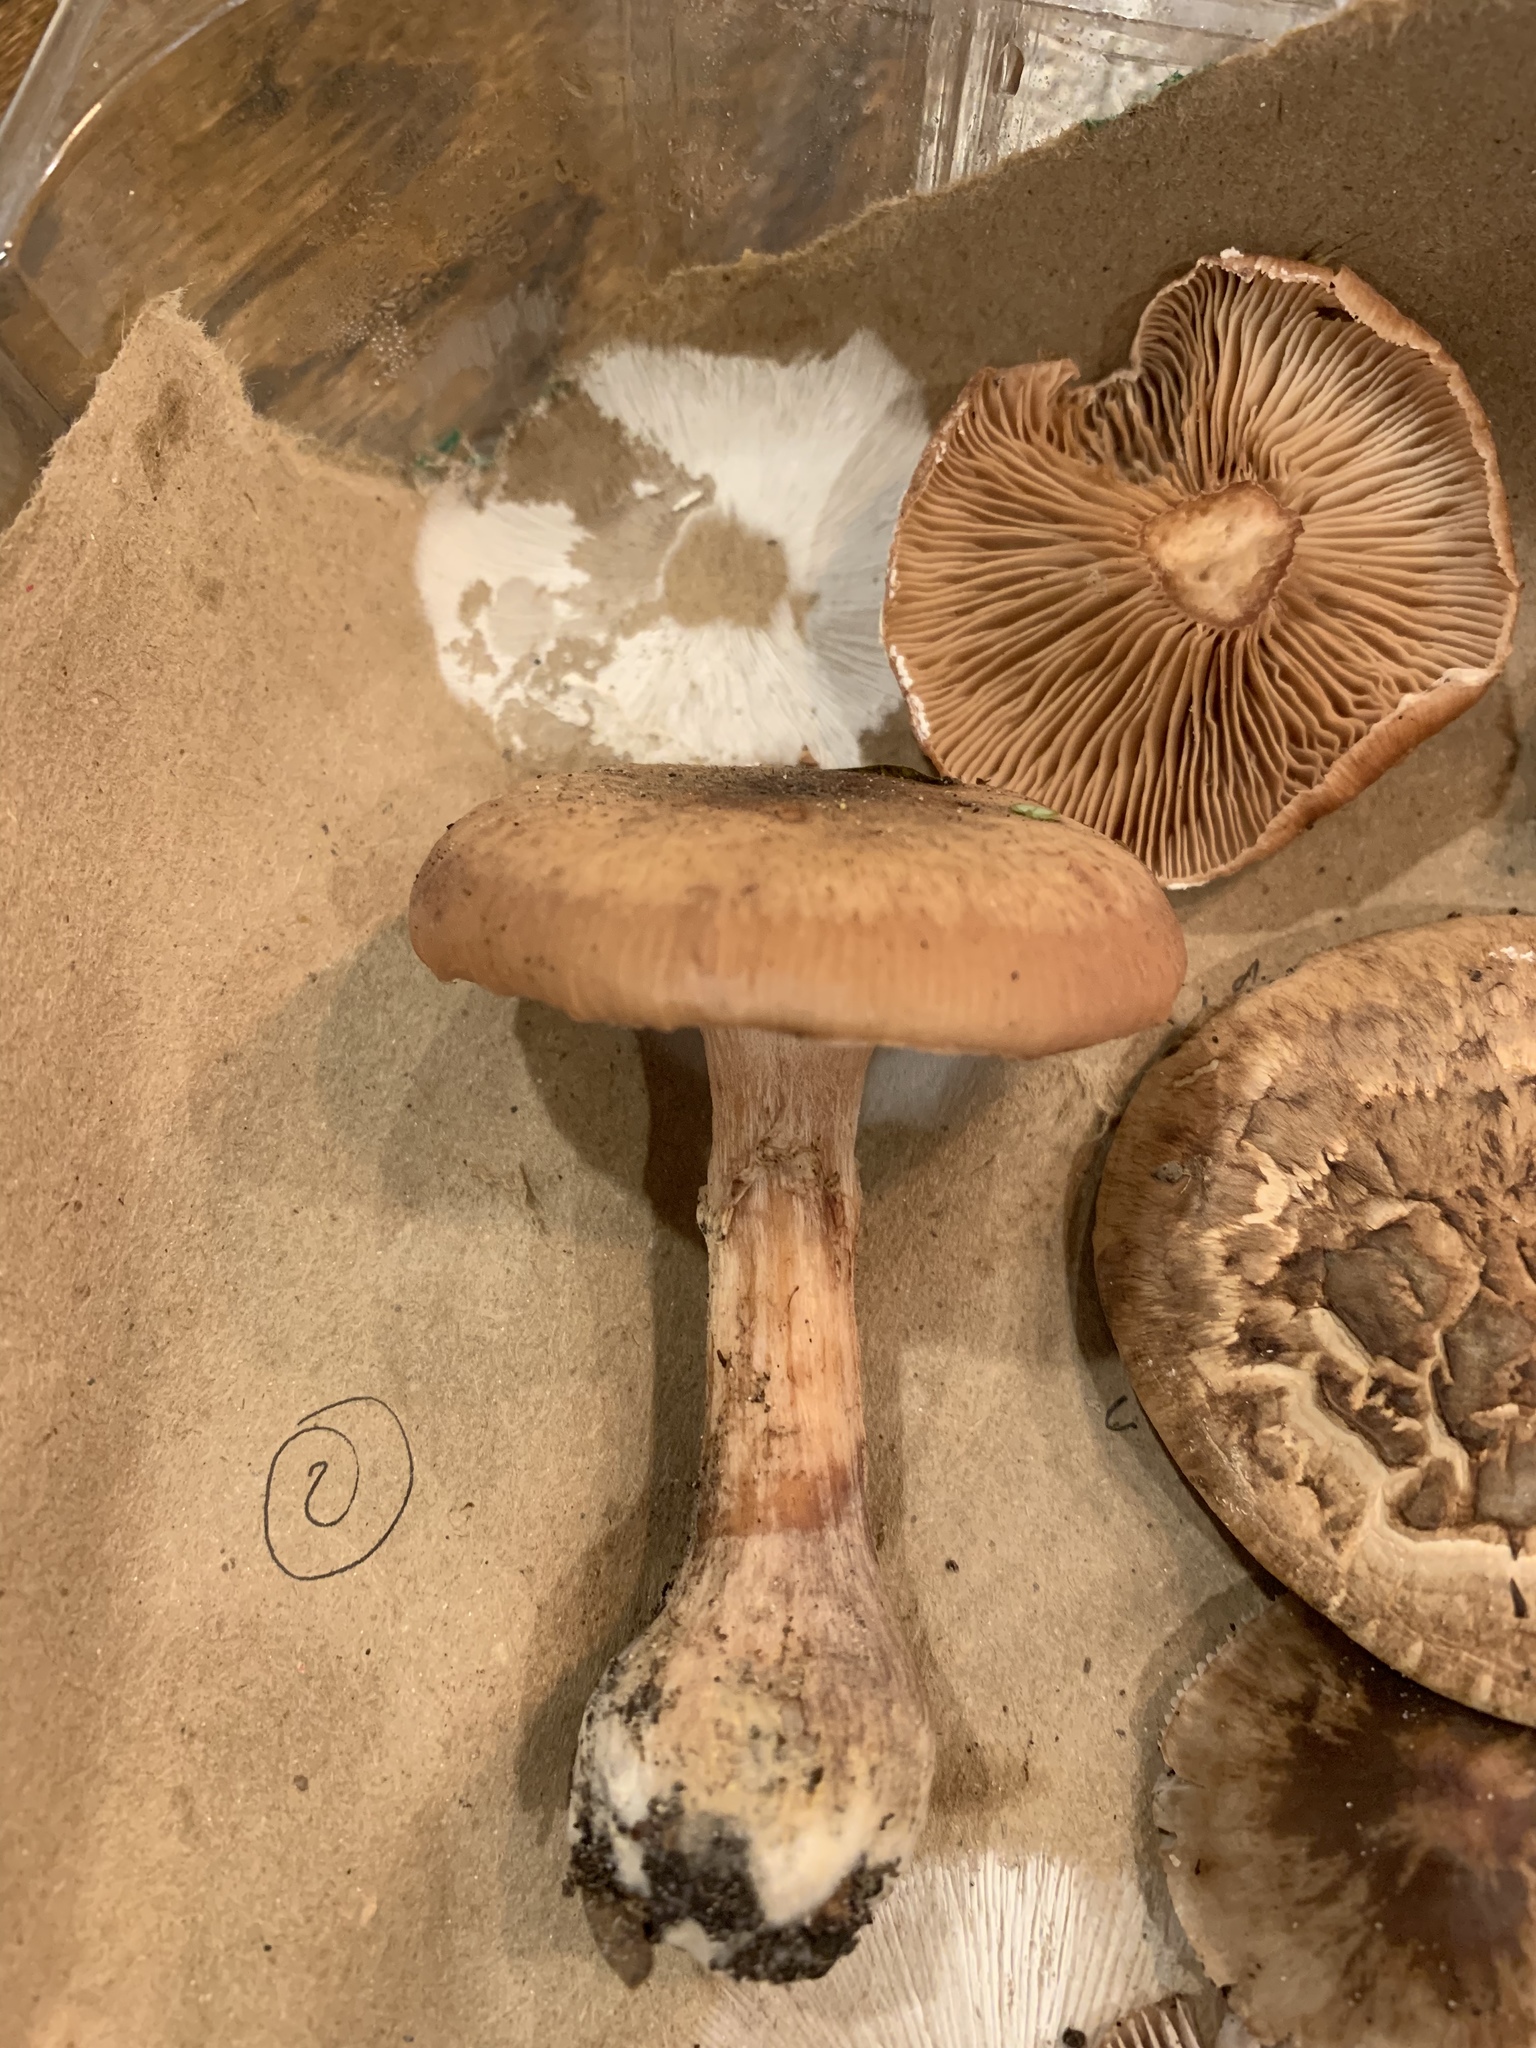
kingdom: Fungi
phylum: Basidiomycota
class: Agaricomycetes
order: Agaricales
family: Physalacriaceae
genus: Armillaria
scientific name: Armillaria gallica
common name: Bulbous honey fungus
